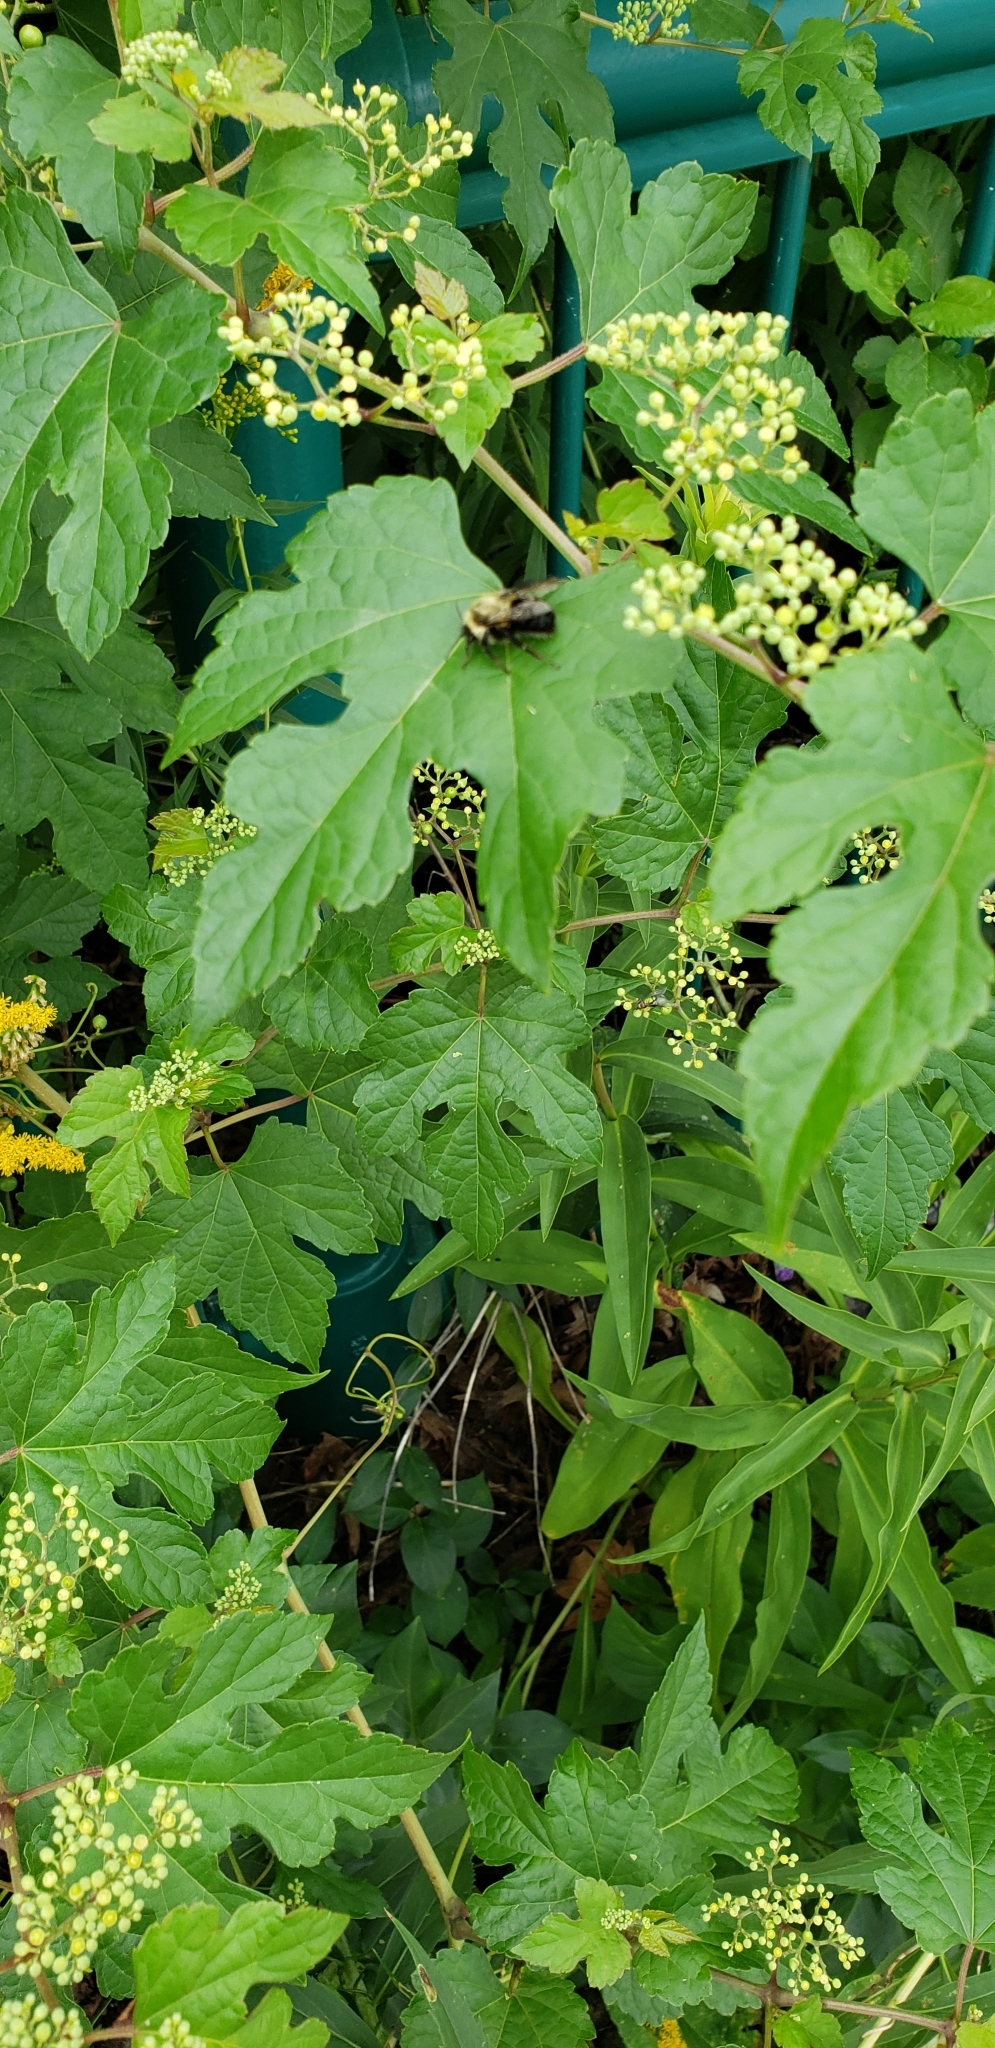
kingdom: Animalia
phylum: Arthropoda
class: Insecta
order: Hymenoptera
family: Apidae
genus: Bombus
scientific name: Bombus impatiens
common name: Common eastern bumble bee
